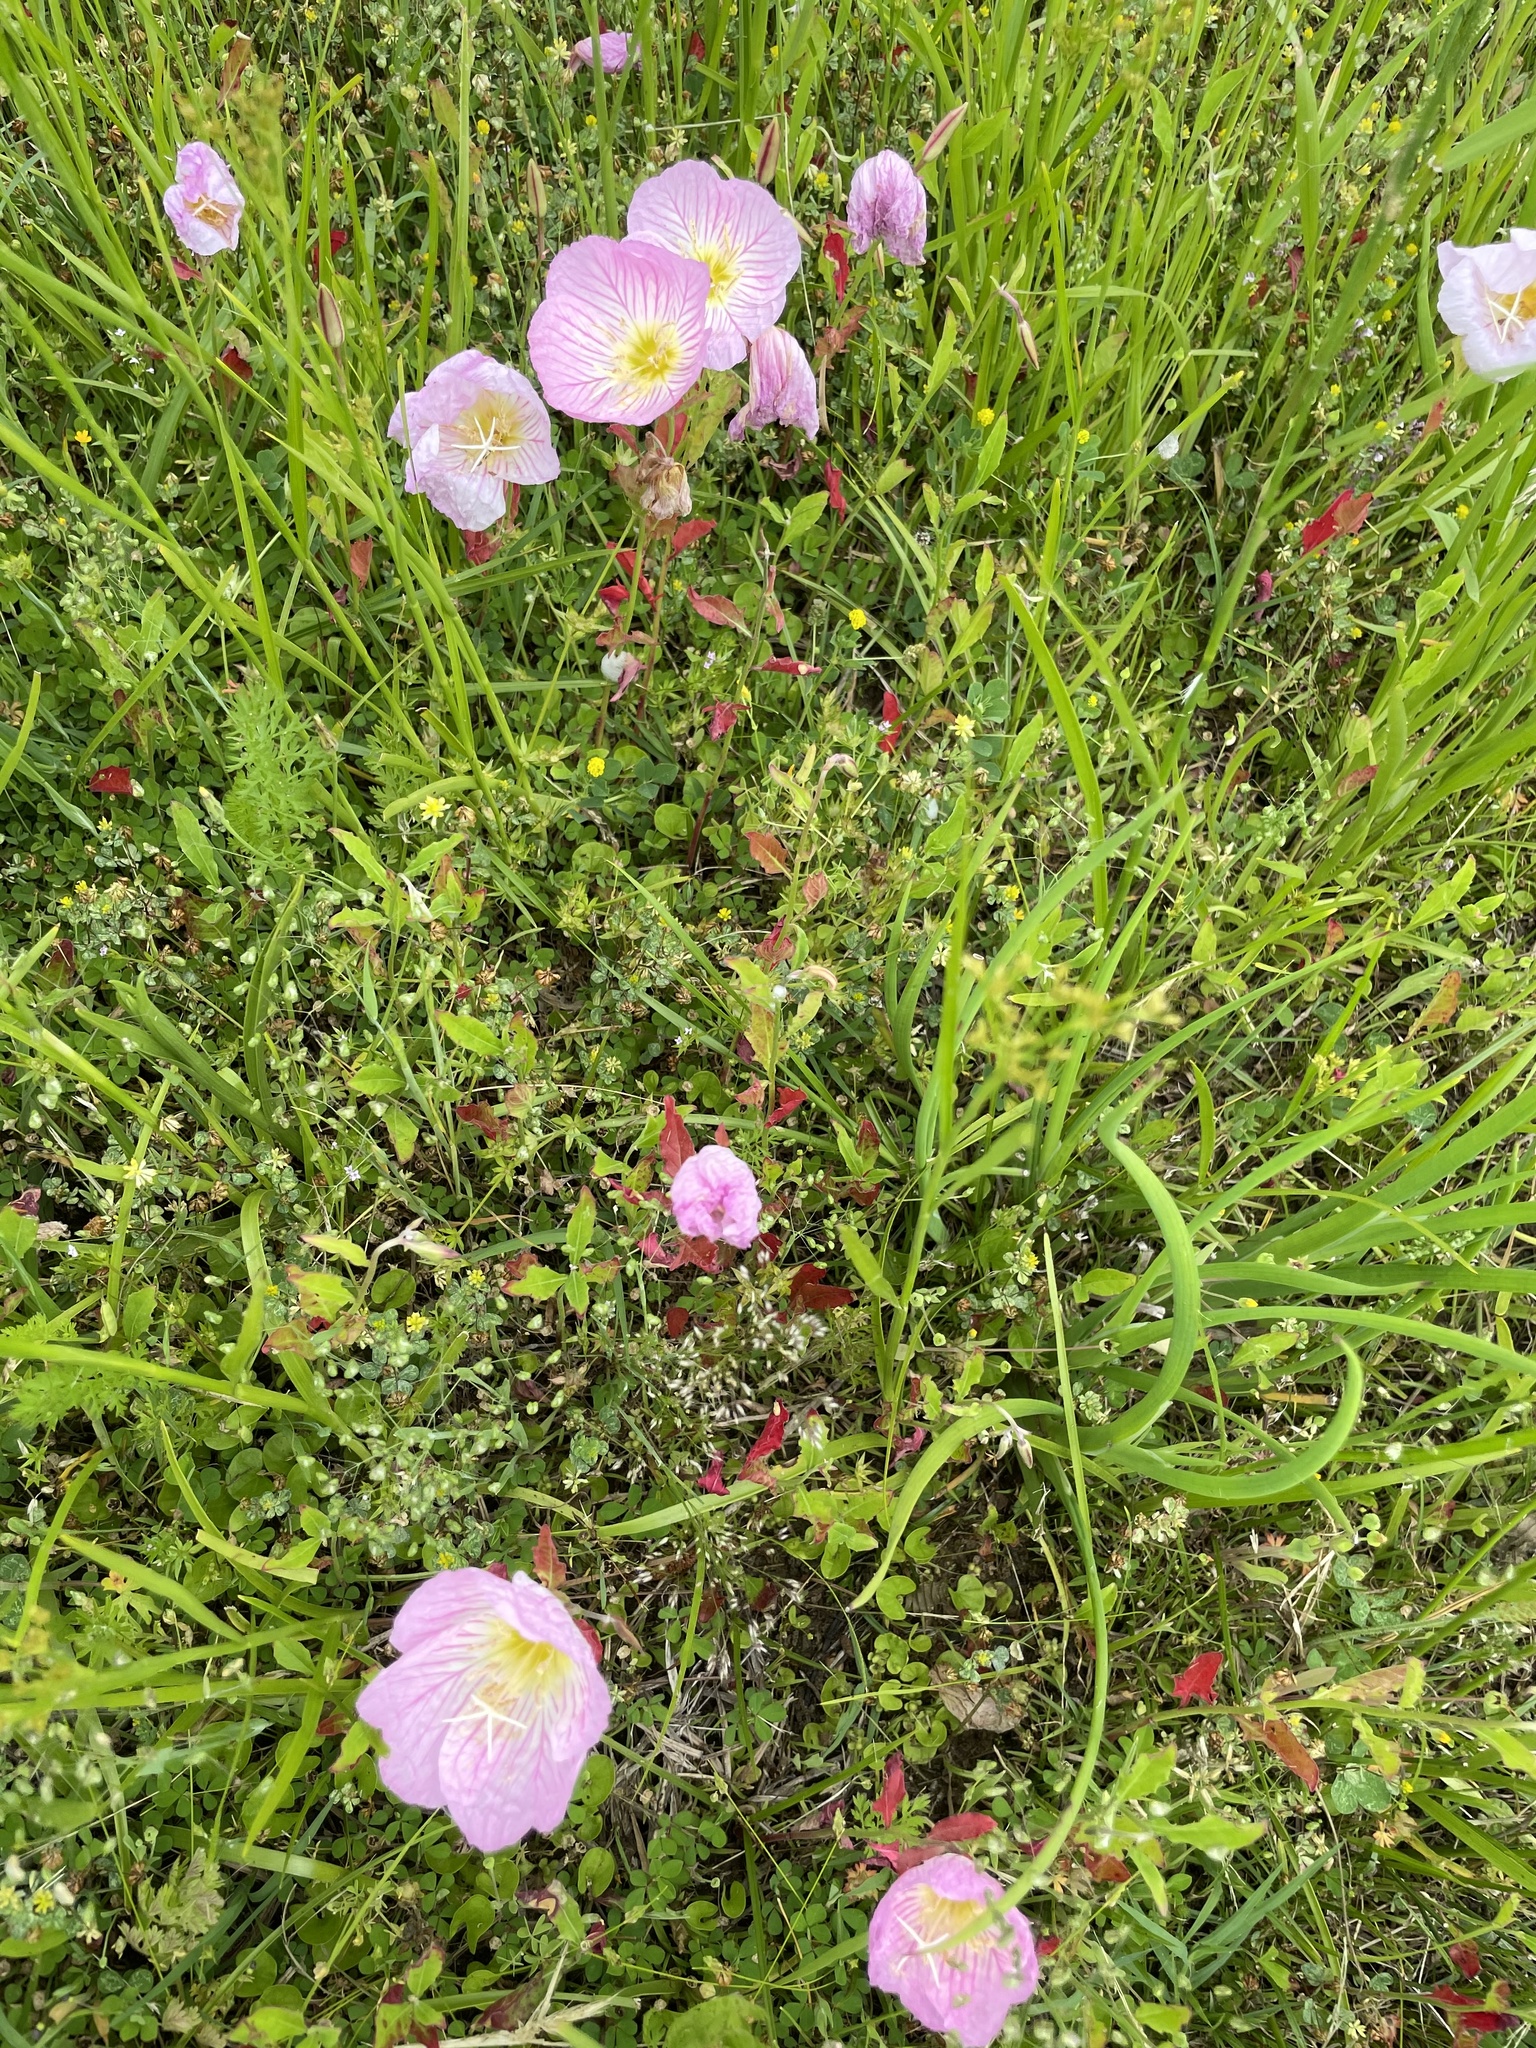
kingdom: Plantae
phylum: Tracheophyta
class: Magnoliopsida
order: Myrtales
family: Onagraceae
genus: Oenothera
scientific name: Oenothera speciosa
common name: White evening-primrose
